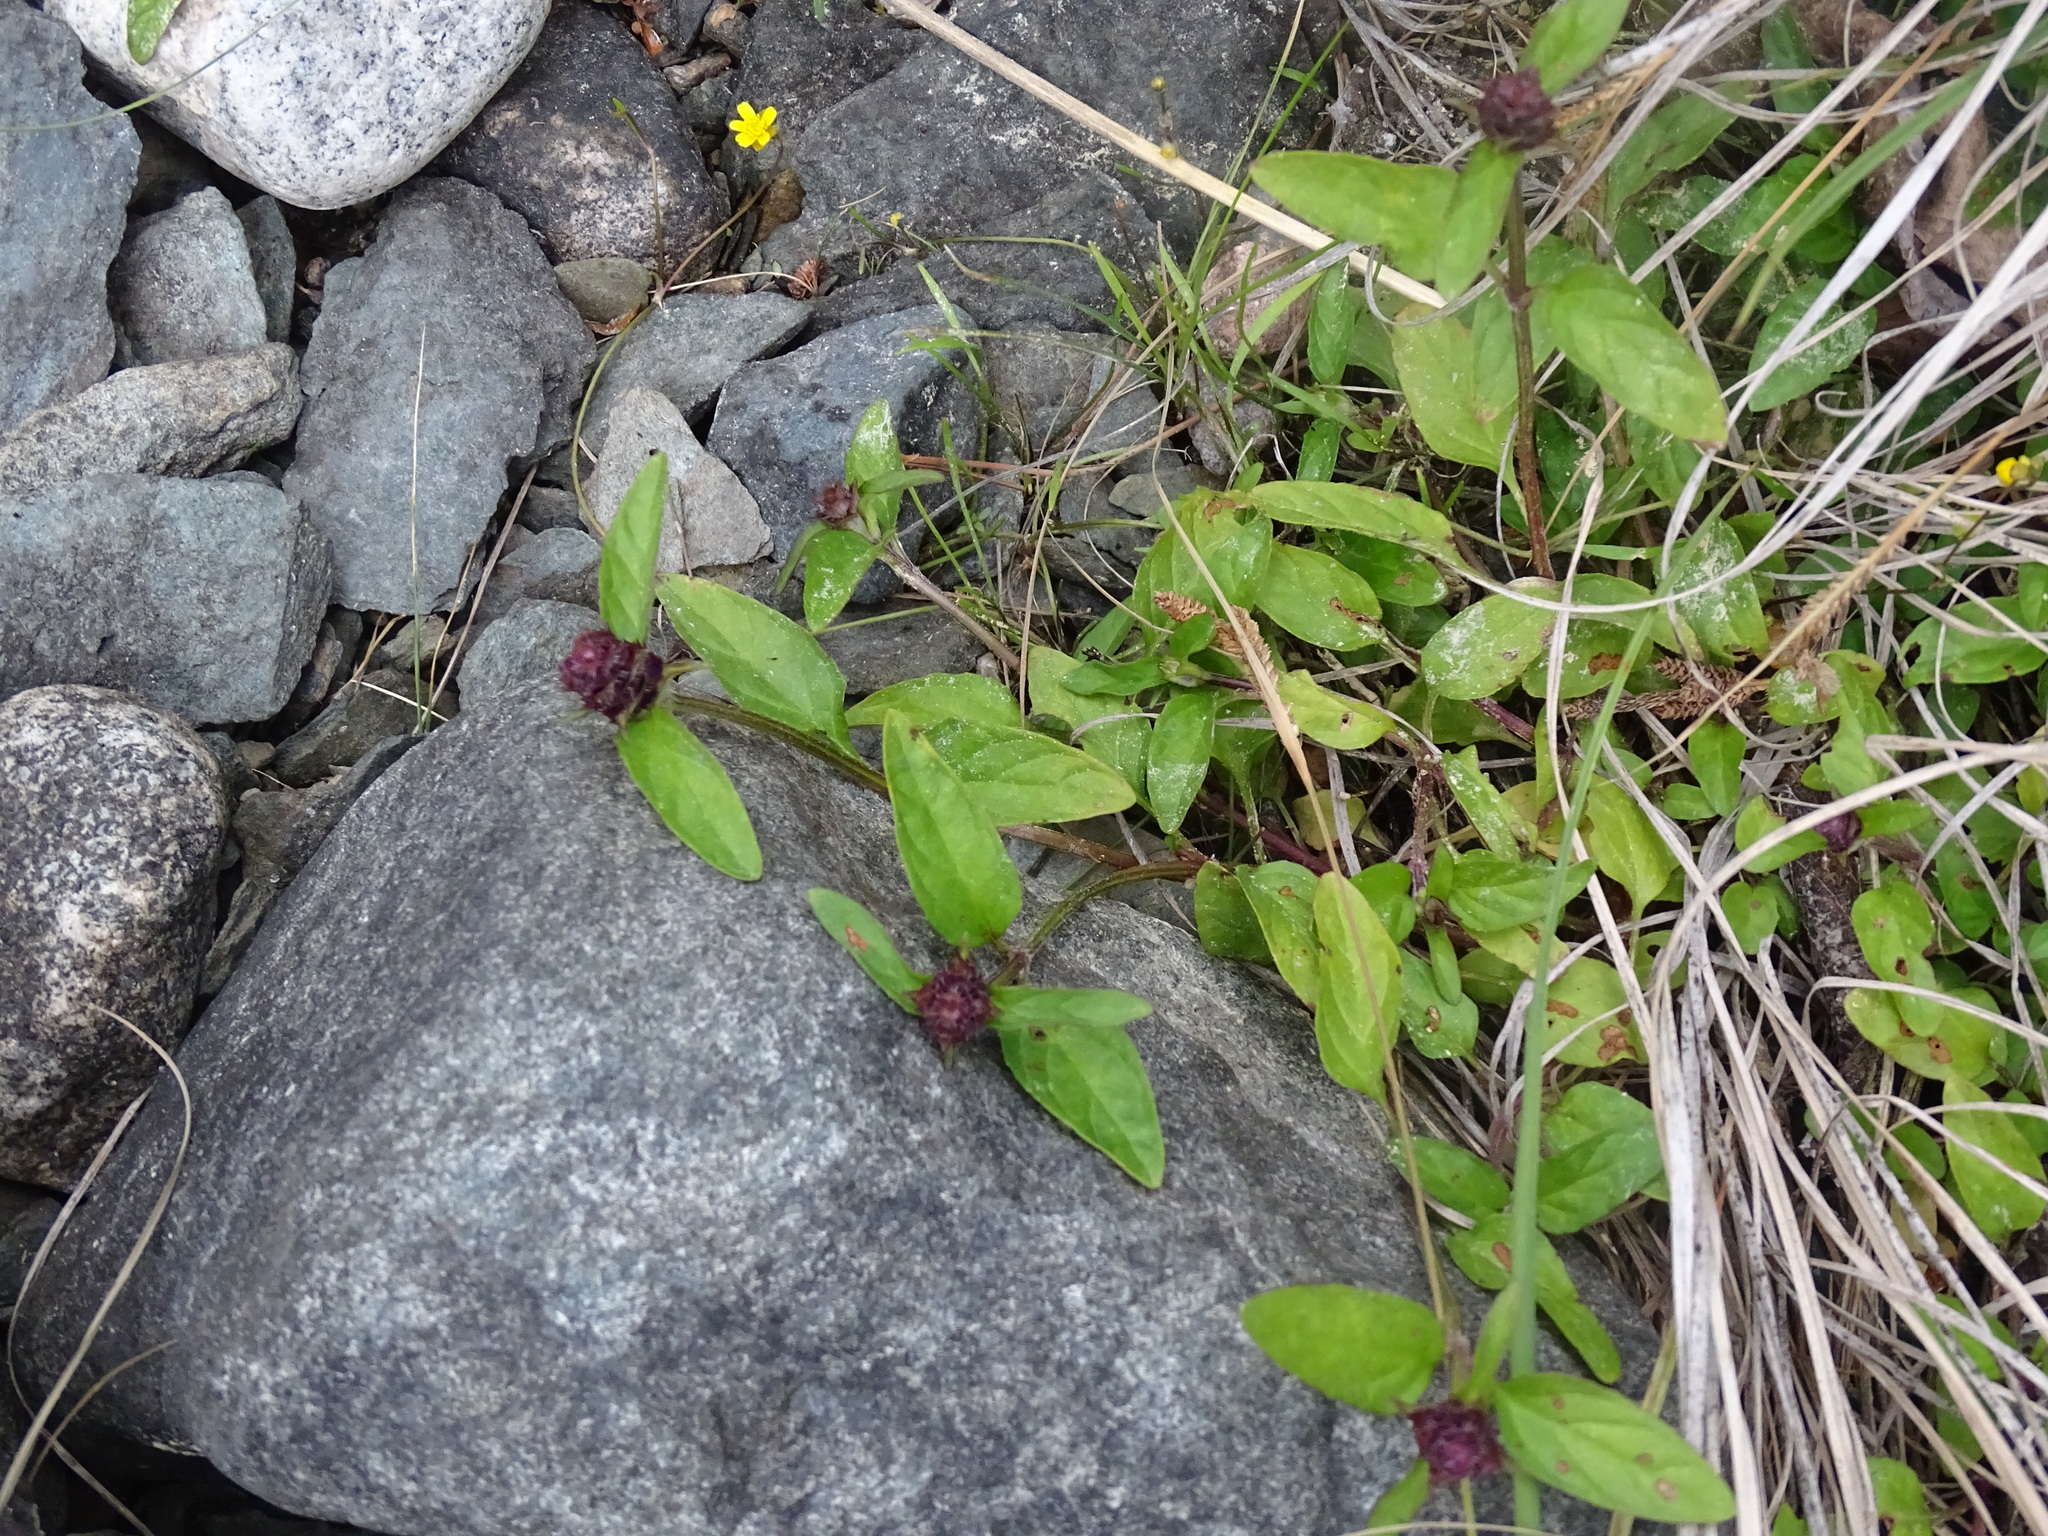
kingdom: Plantae
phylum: Tracheophyta
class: Magnoliopsida
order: Lamiales
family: Lamiaceae
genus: Prunella
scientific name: Prunella vulgaris
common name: Heal-all
